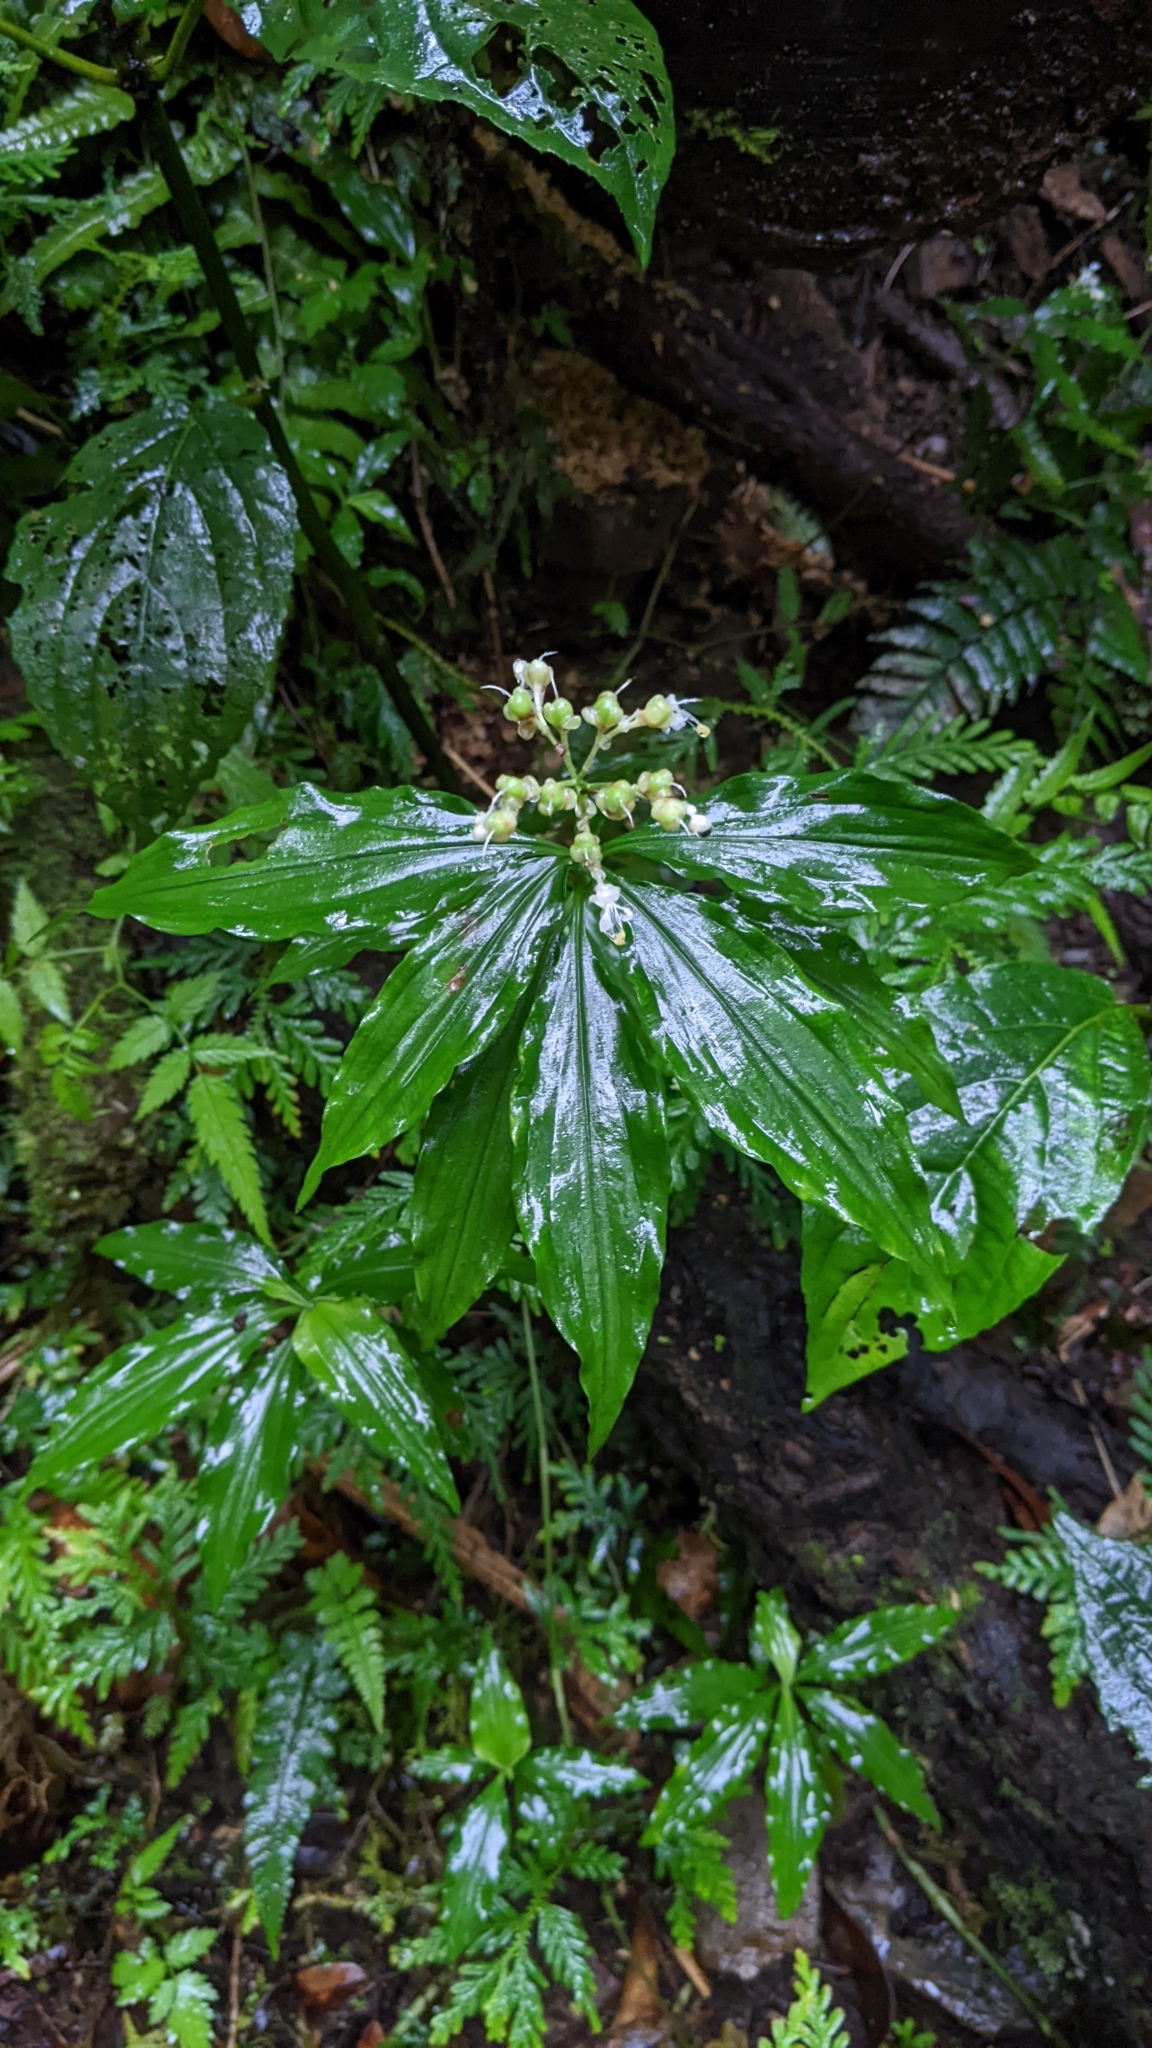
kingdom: Plantae
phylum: Tracheophyta
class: Liliopsida
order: Commelinales
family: Commelinaceae
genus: Pollia
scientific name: Pollia miranda
